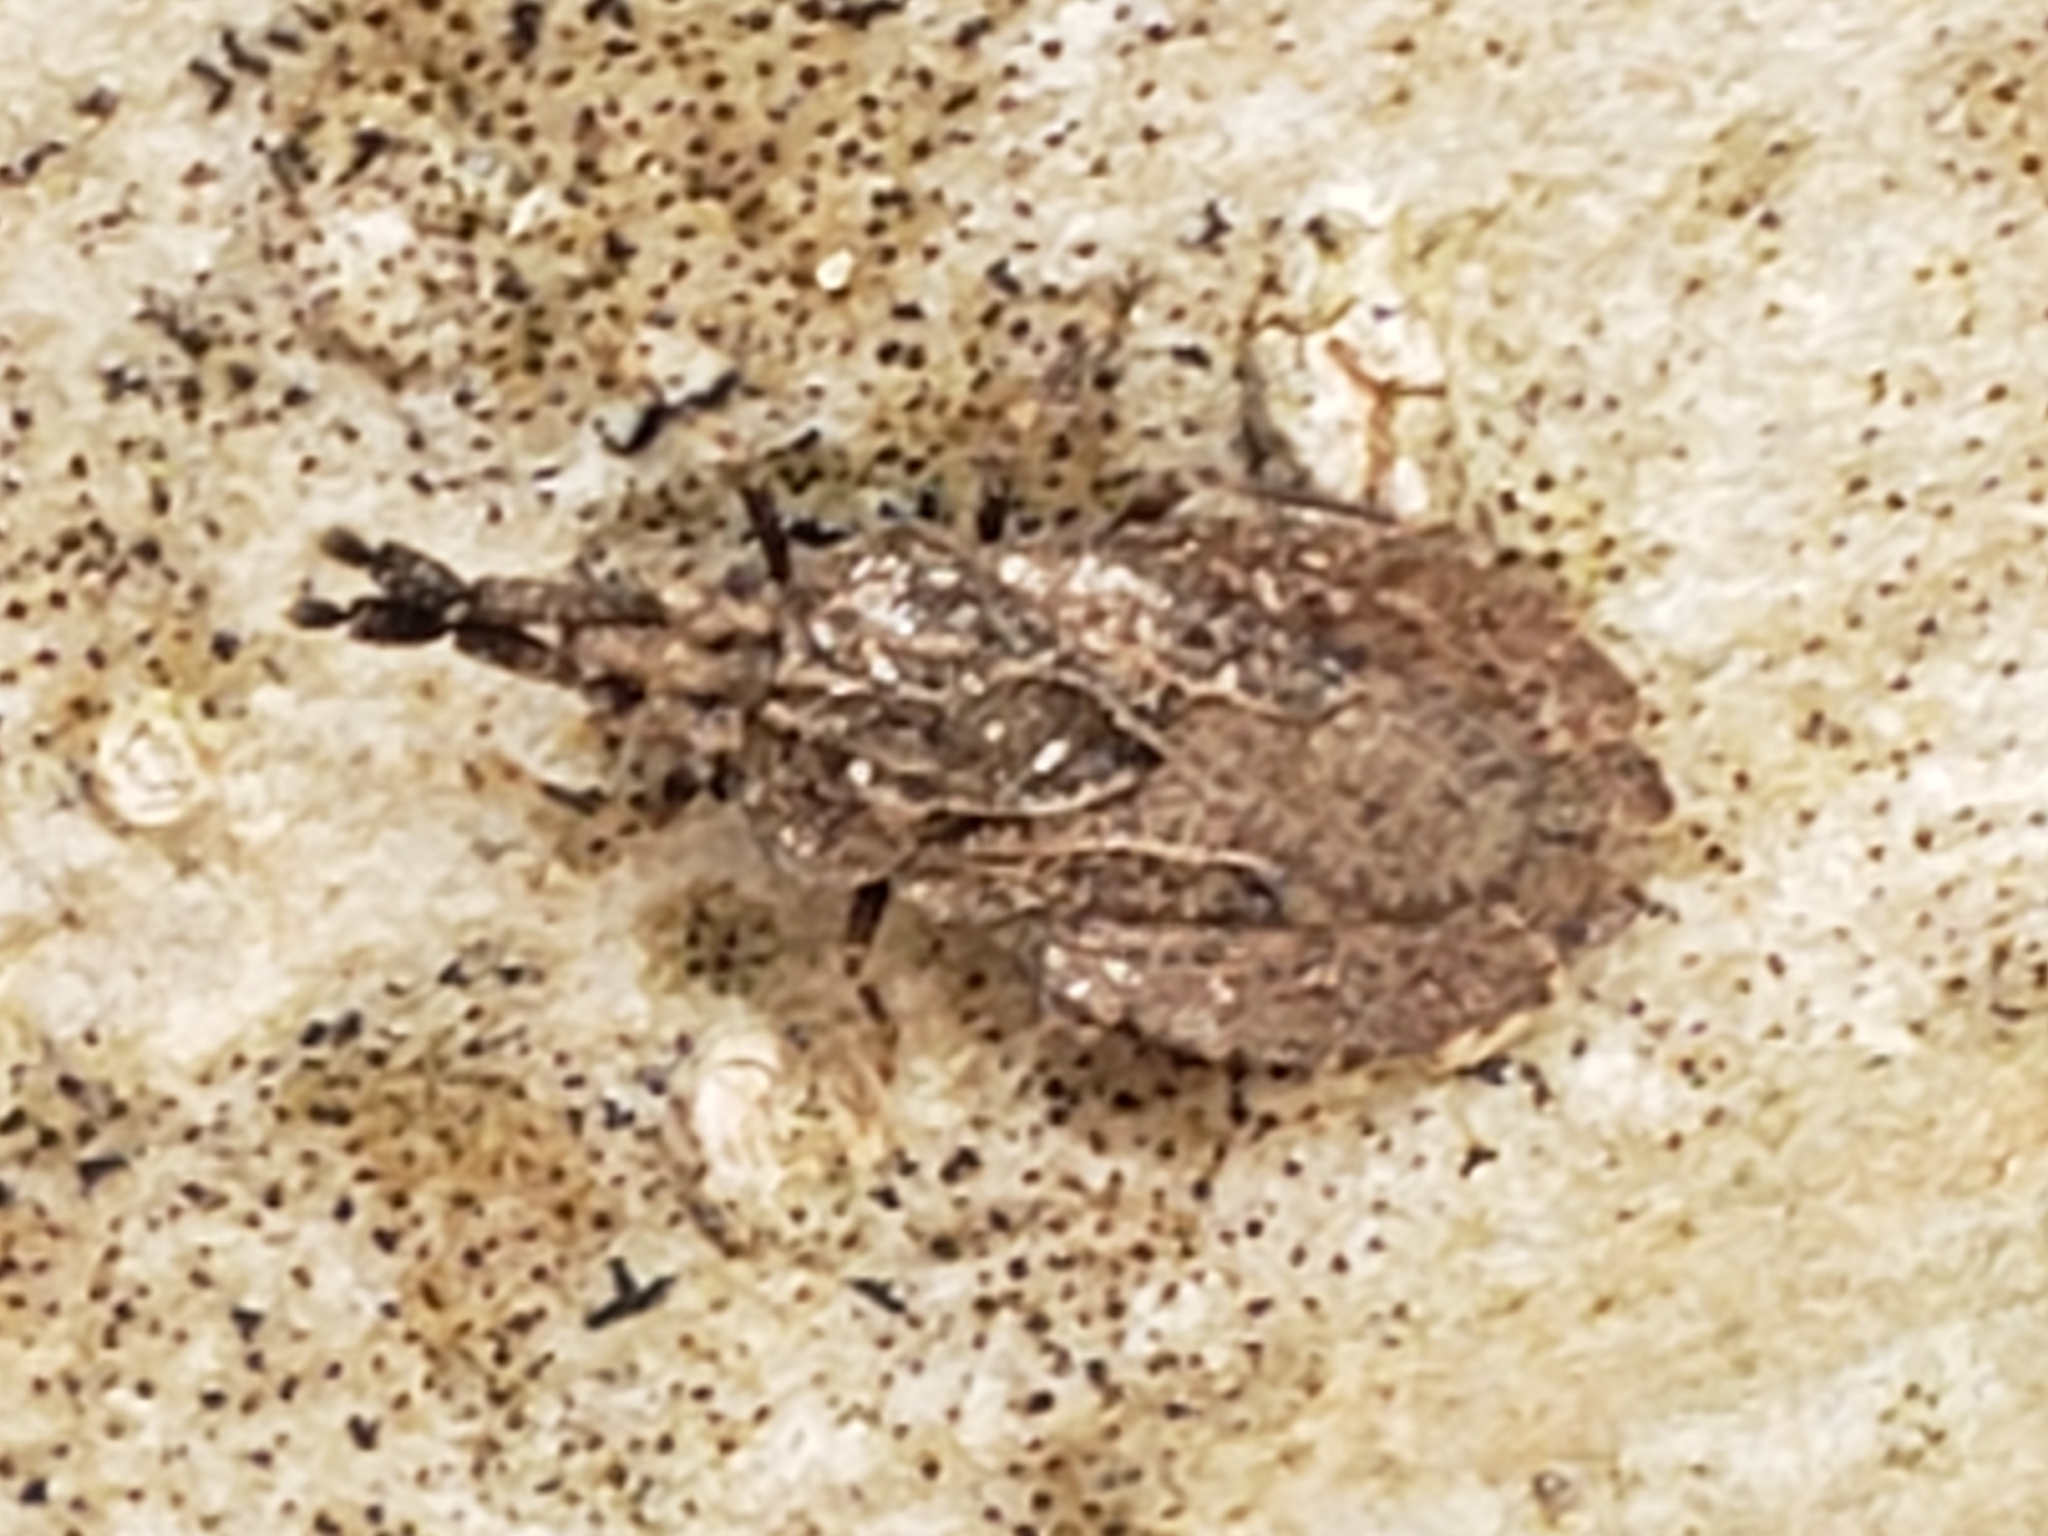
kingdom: Animalia
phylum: Arthropoda
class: Insecta
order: Hemiptera
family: Aradidae
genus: Aradus
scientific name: Aradus robustus
